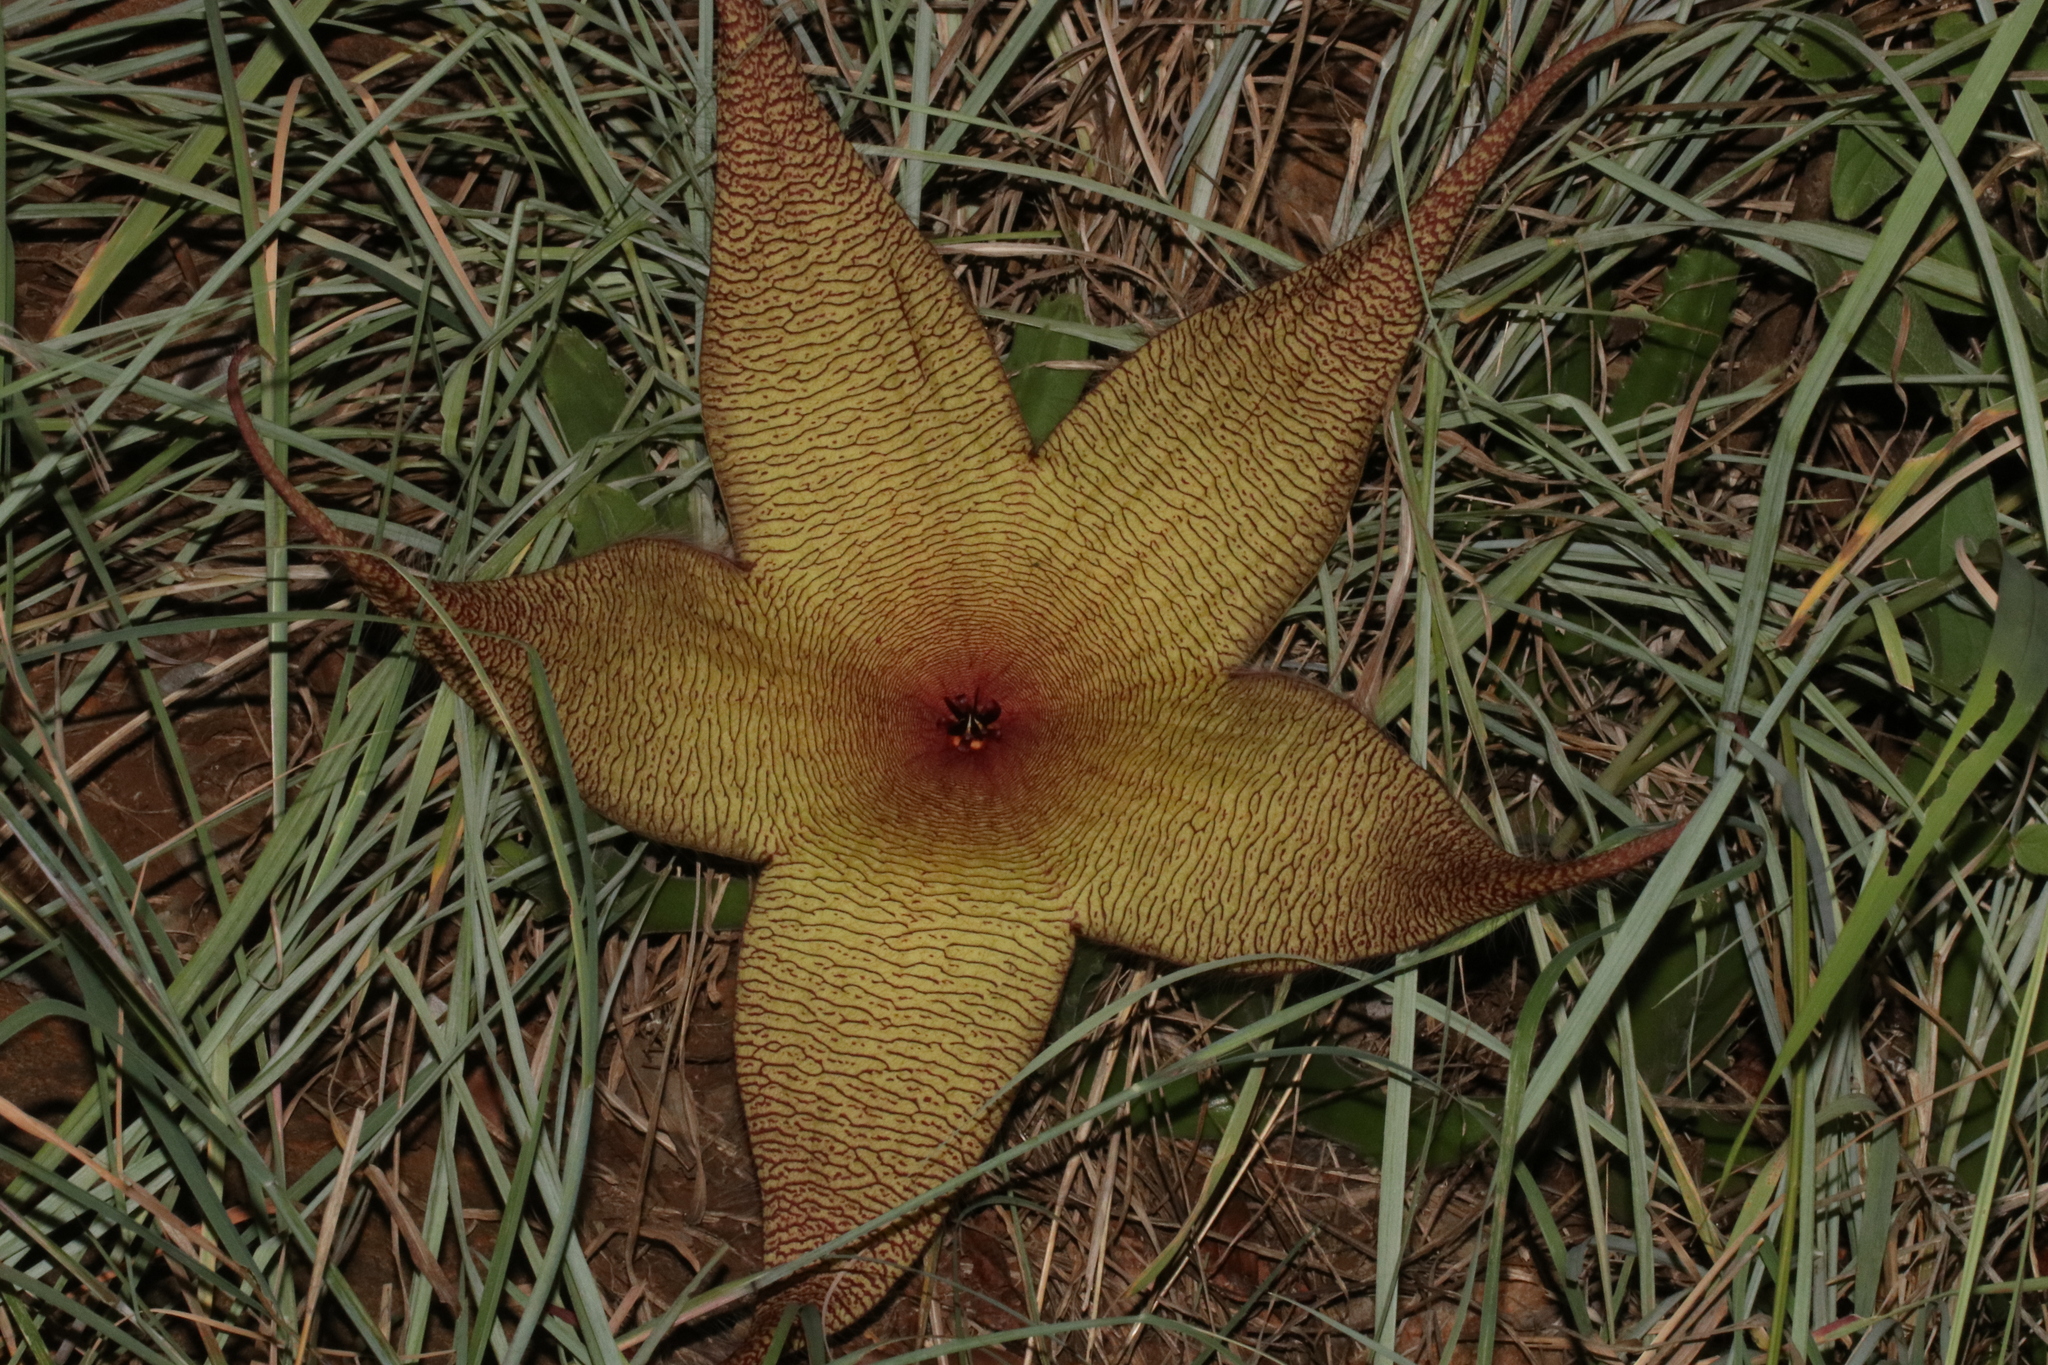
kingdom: Plantae
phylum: Tracheophyta
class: Magnoliopsida
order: Gentianales
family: Apocynaceae
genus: Ceropegia
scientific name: Ceropegia gigantea
